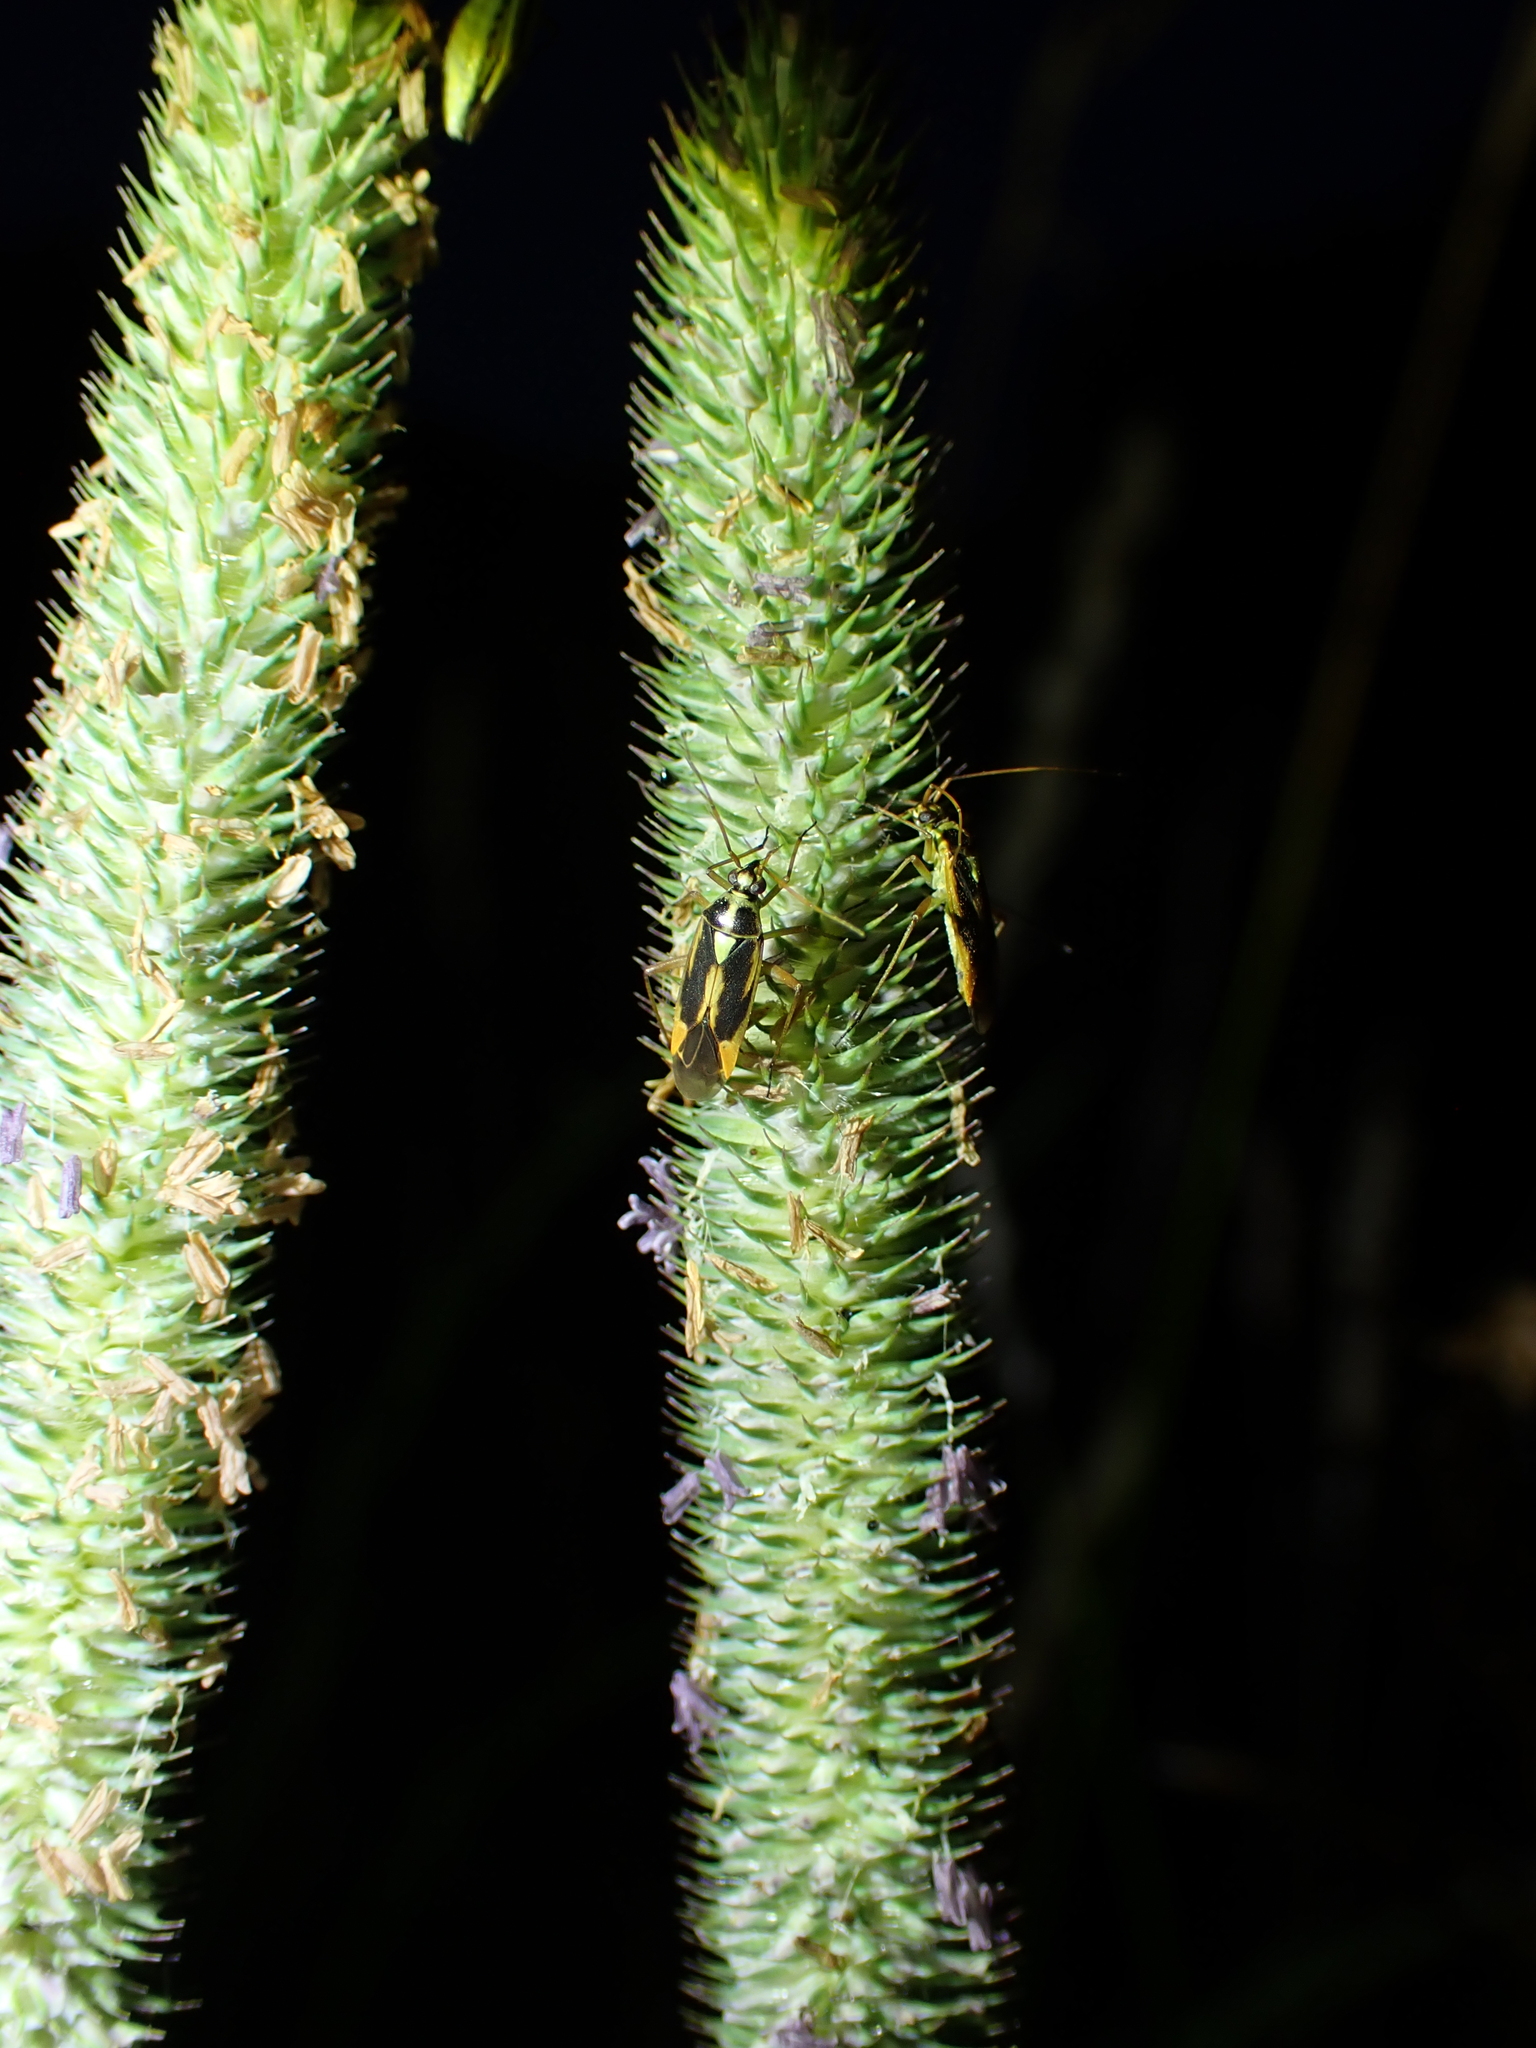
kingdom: Animalia
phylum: Arthropoda
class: Insecta
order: Hemiptera
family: Miridae
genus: Stenotus
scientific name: Stenotus binotatus
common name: Plant bug
